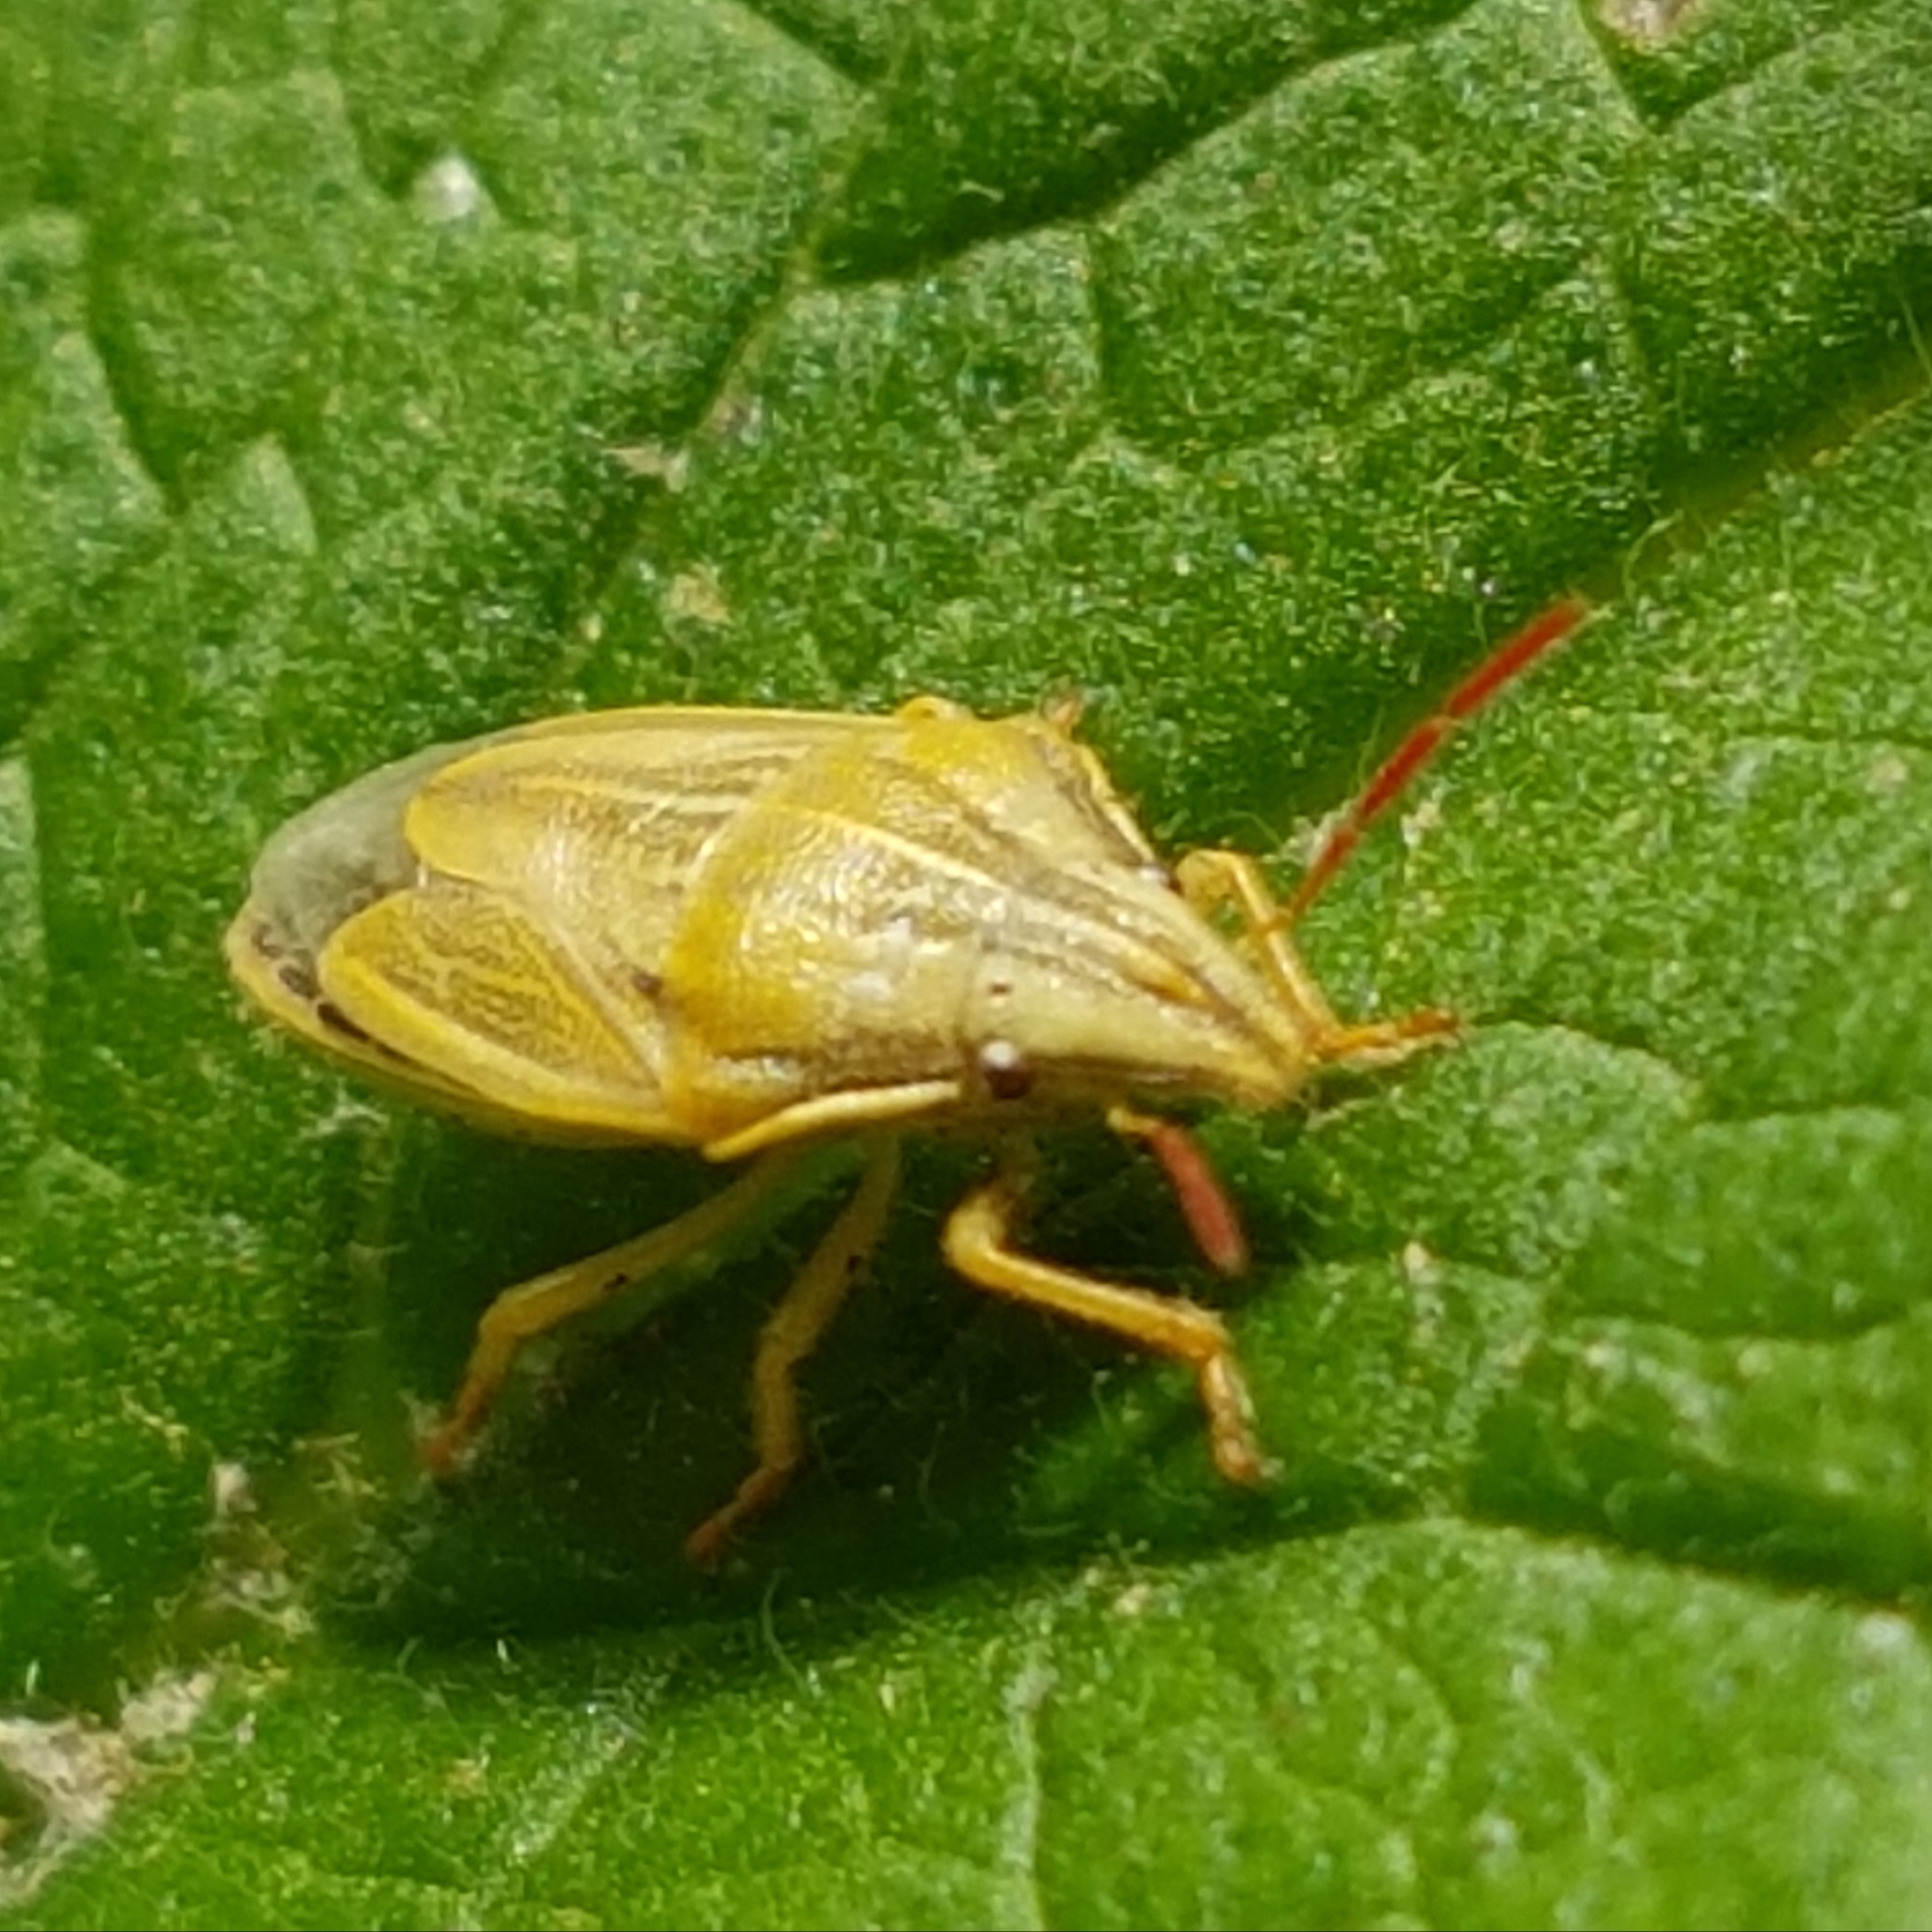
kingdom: Animalia
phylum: Arthropoda
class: Insecta
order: Hemiptera
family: Pentatomidae
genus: Aelia
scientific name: Aelia acuminata
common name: Bishop's mitre
